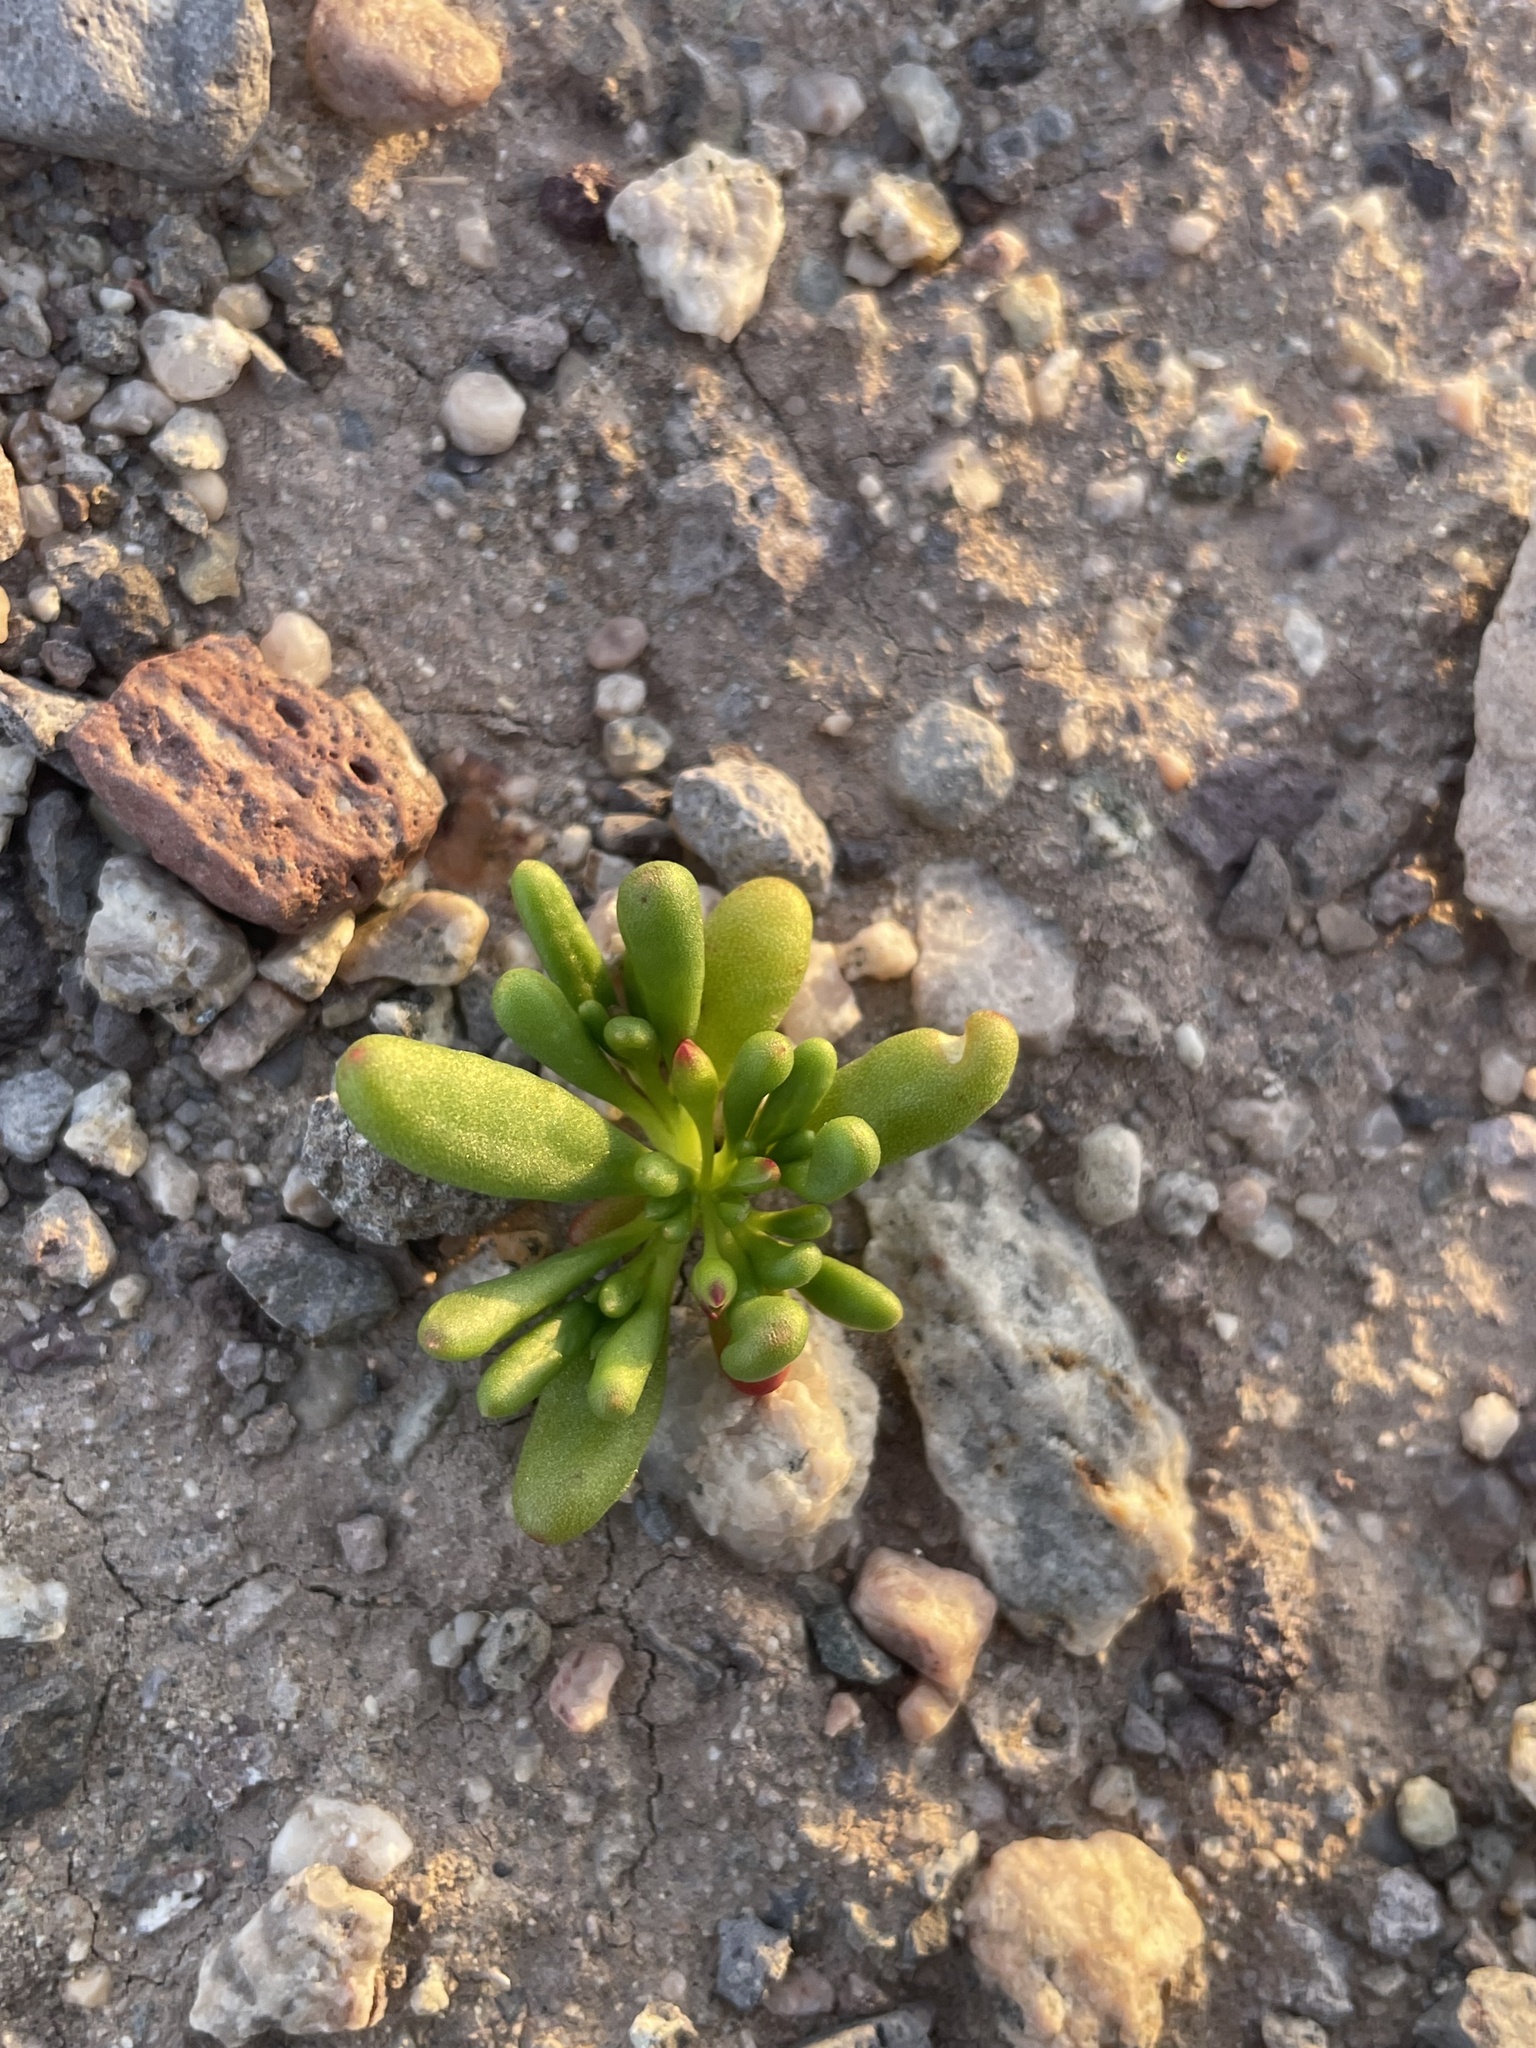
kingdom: Plantae
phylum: Tracheophyta
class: Magnoliopsida
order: Caryophyllales
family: Montiaceae
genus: Thingia
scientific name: Thingia ambigua
